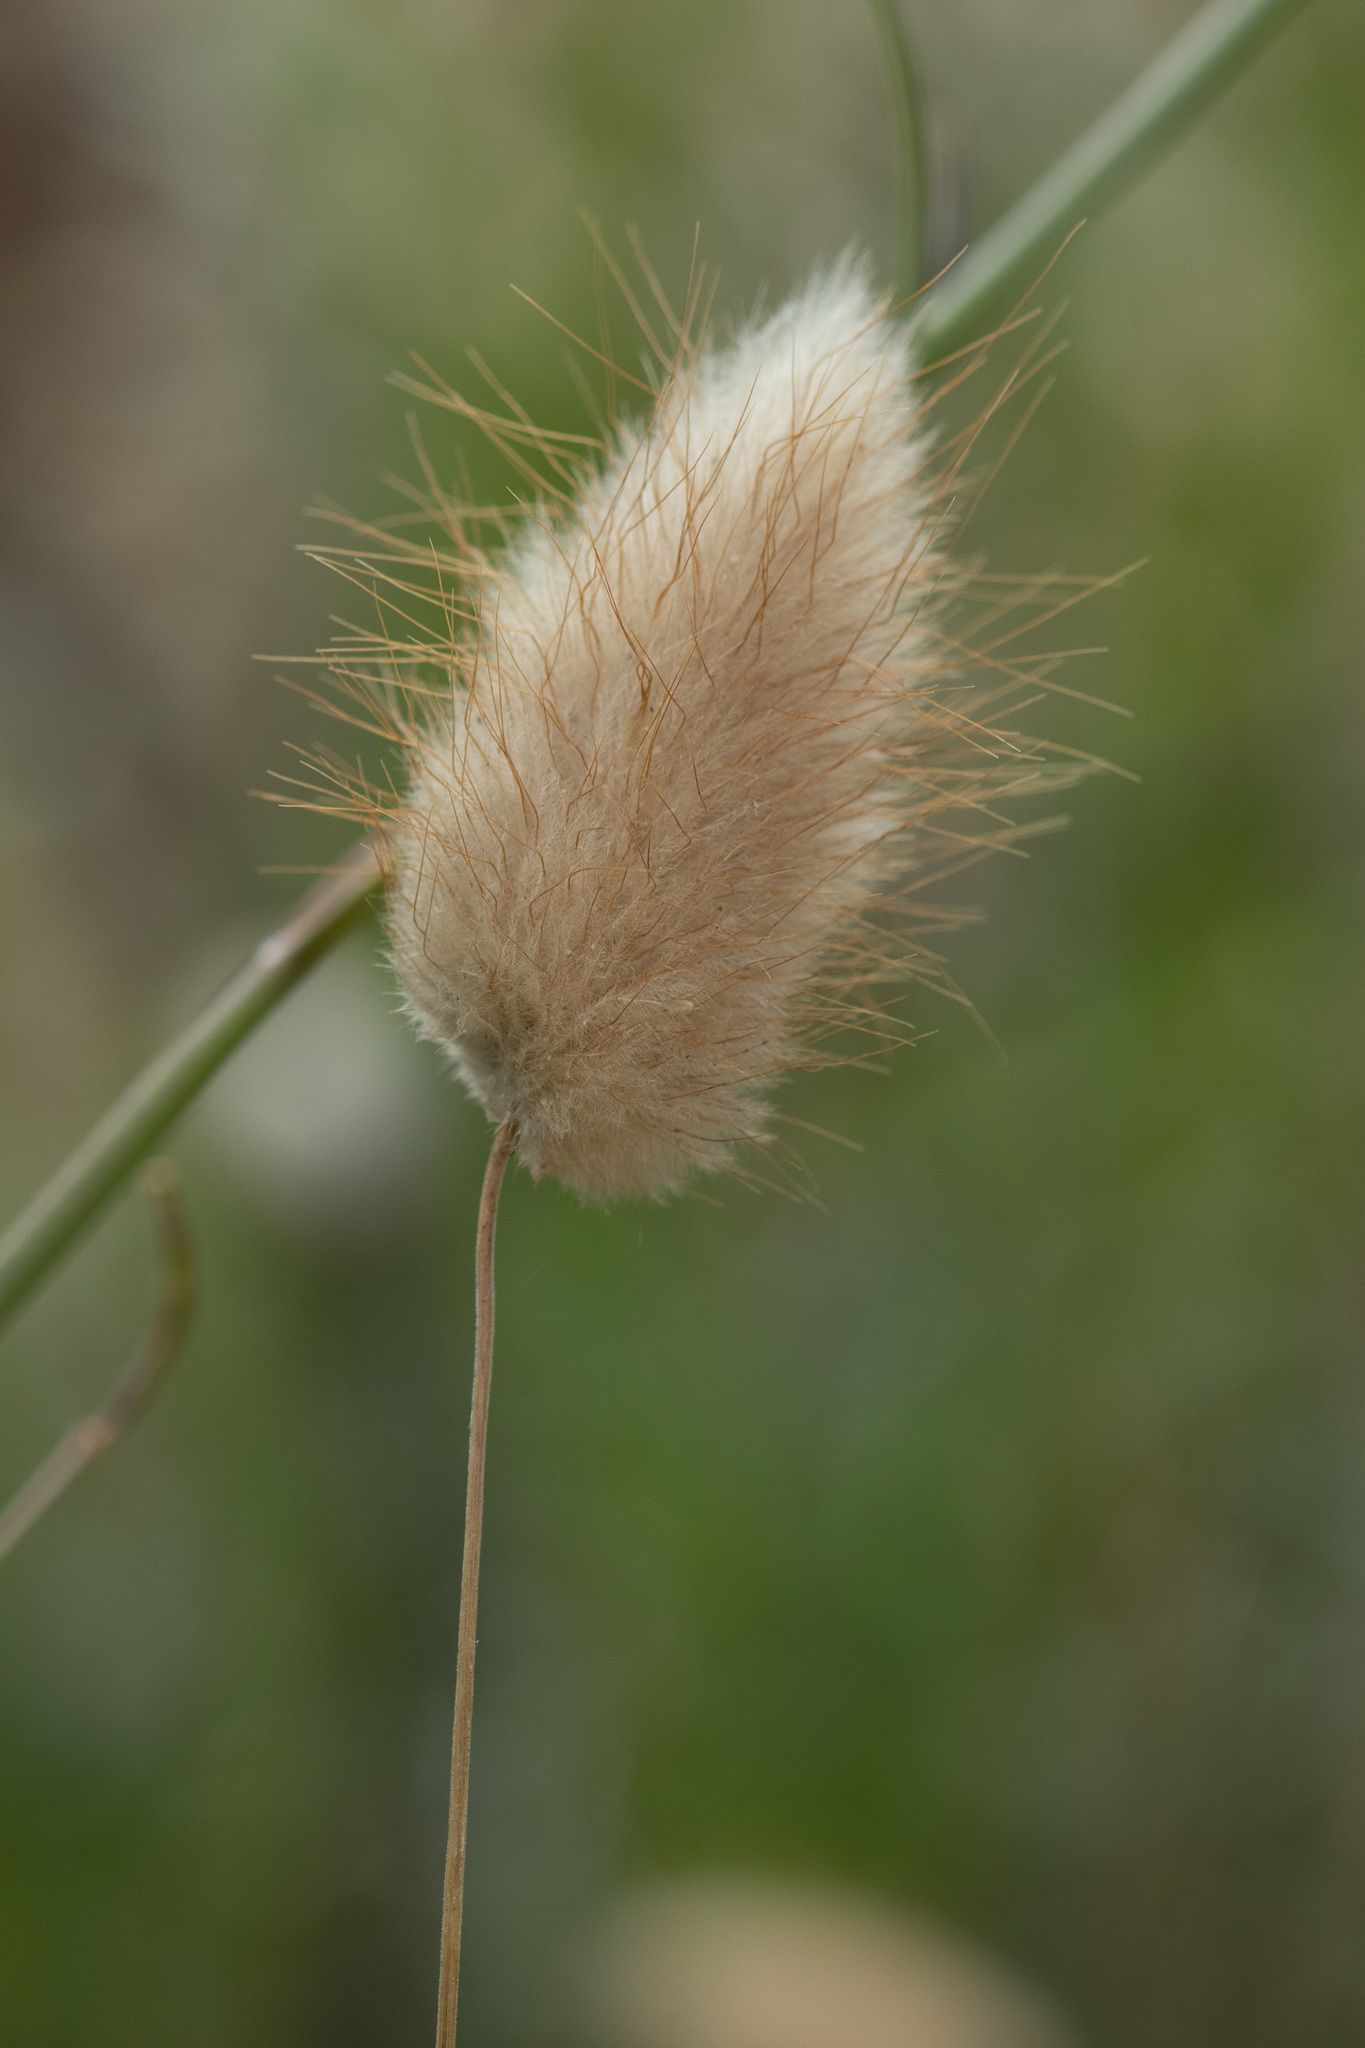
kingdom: Plantae
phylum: Tracheophyta
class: Liliopsida
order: Poales
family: Poaceae
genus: Lagurus
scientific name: Lagurus ovatus
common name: Hare's-tail
